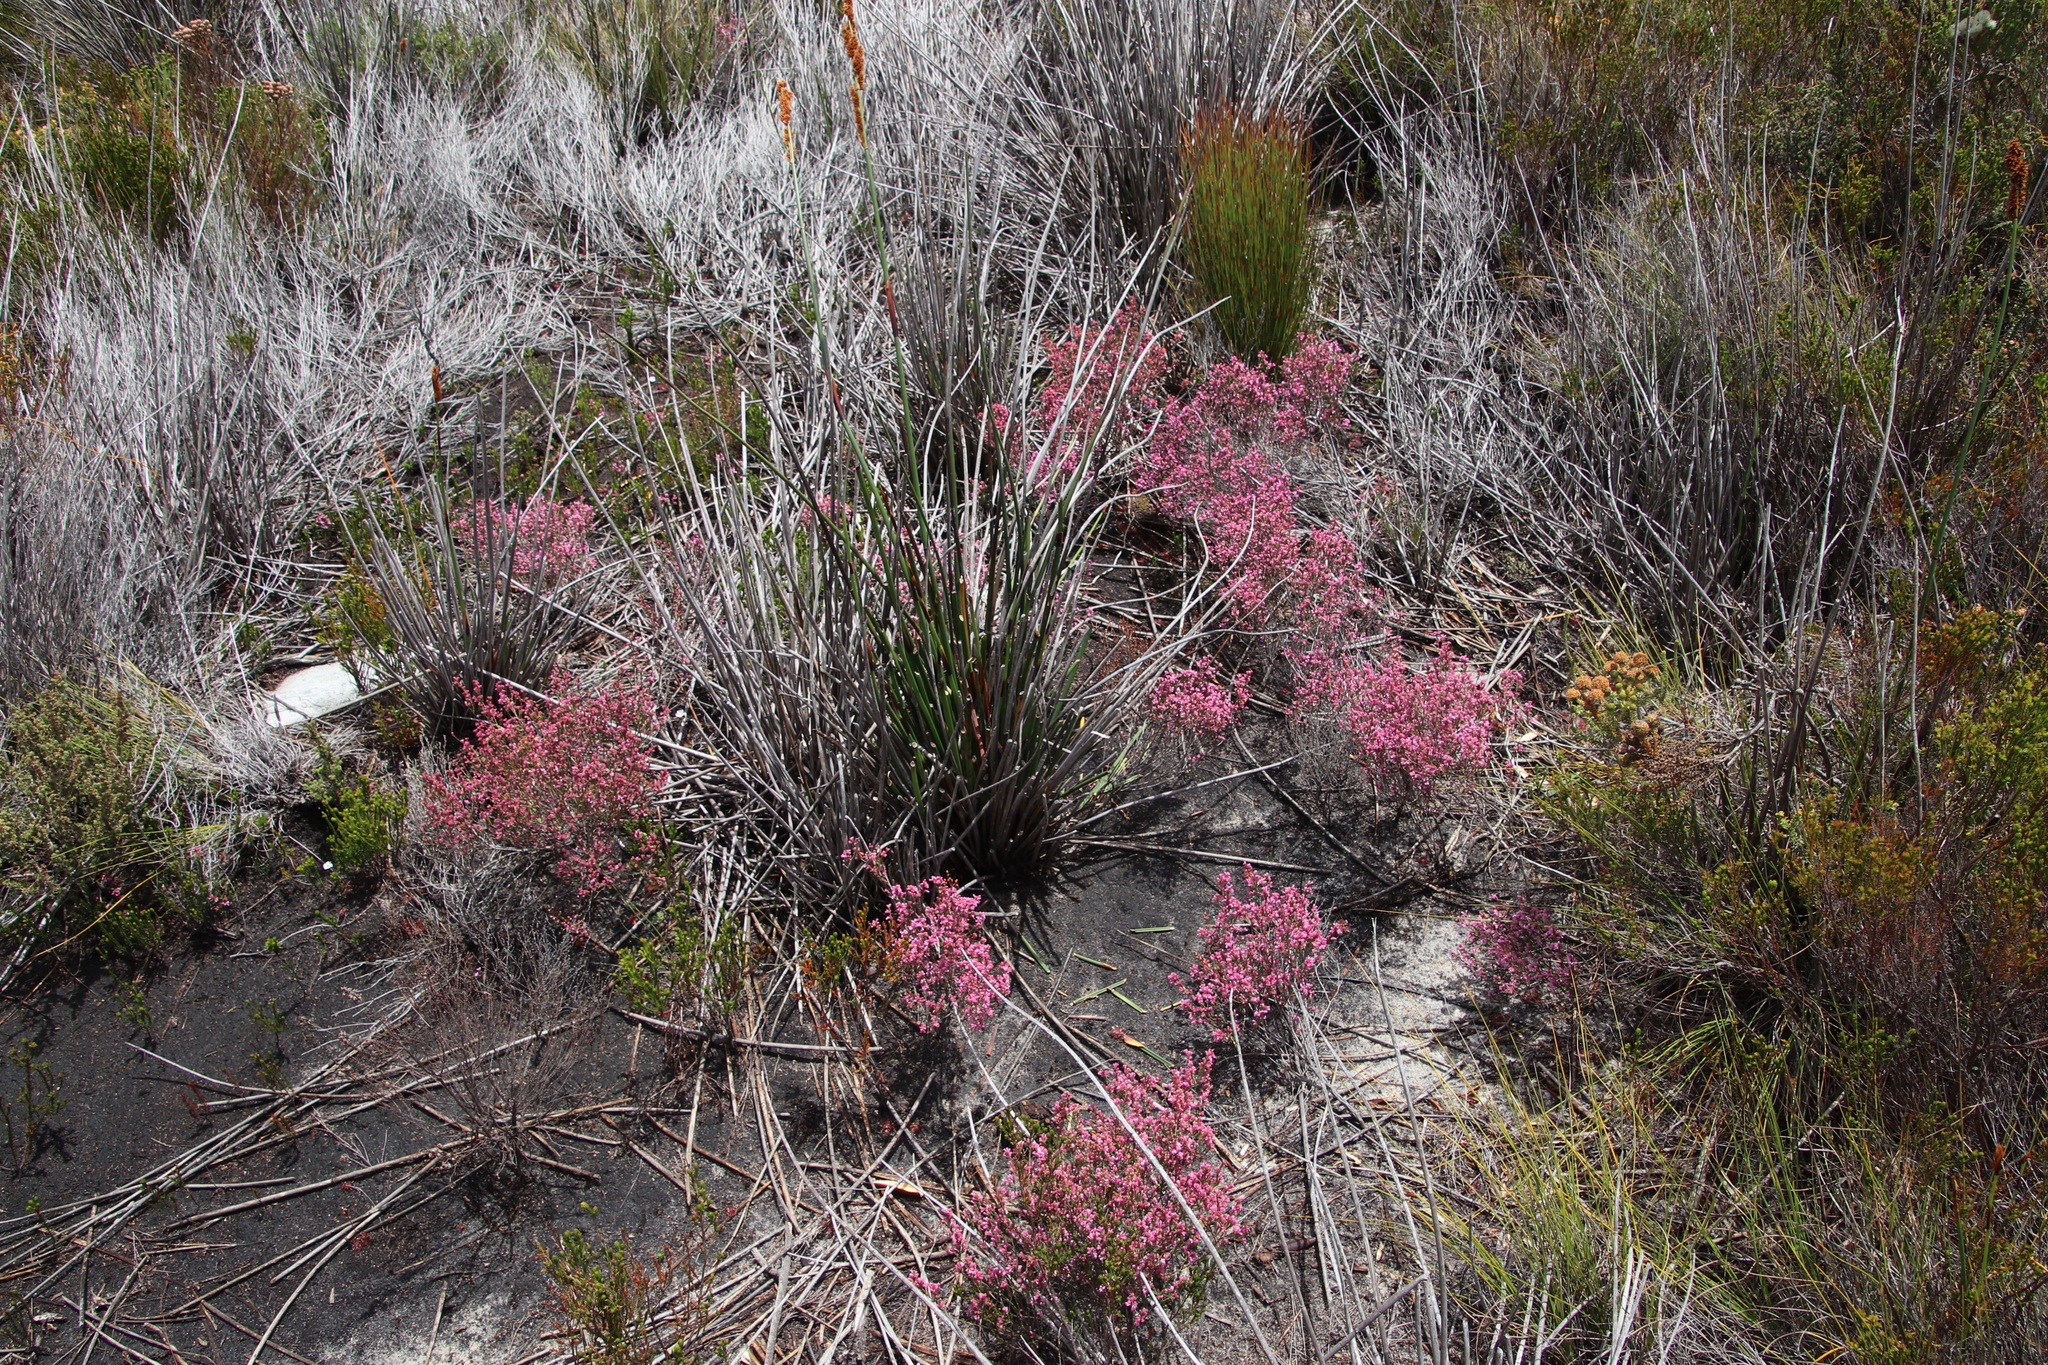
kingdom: Plantae
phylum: Tracheophyta
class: Magnoliopsida
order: Ericales
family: Ericaceae
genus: Erica
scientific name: Erica gnaphaloides
